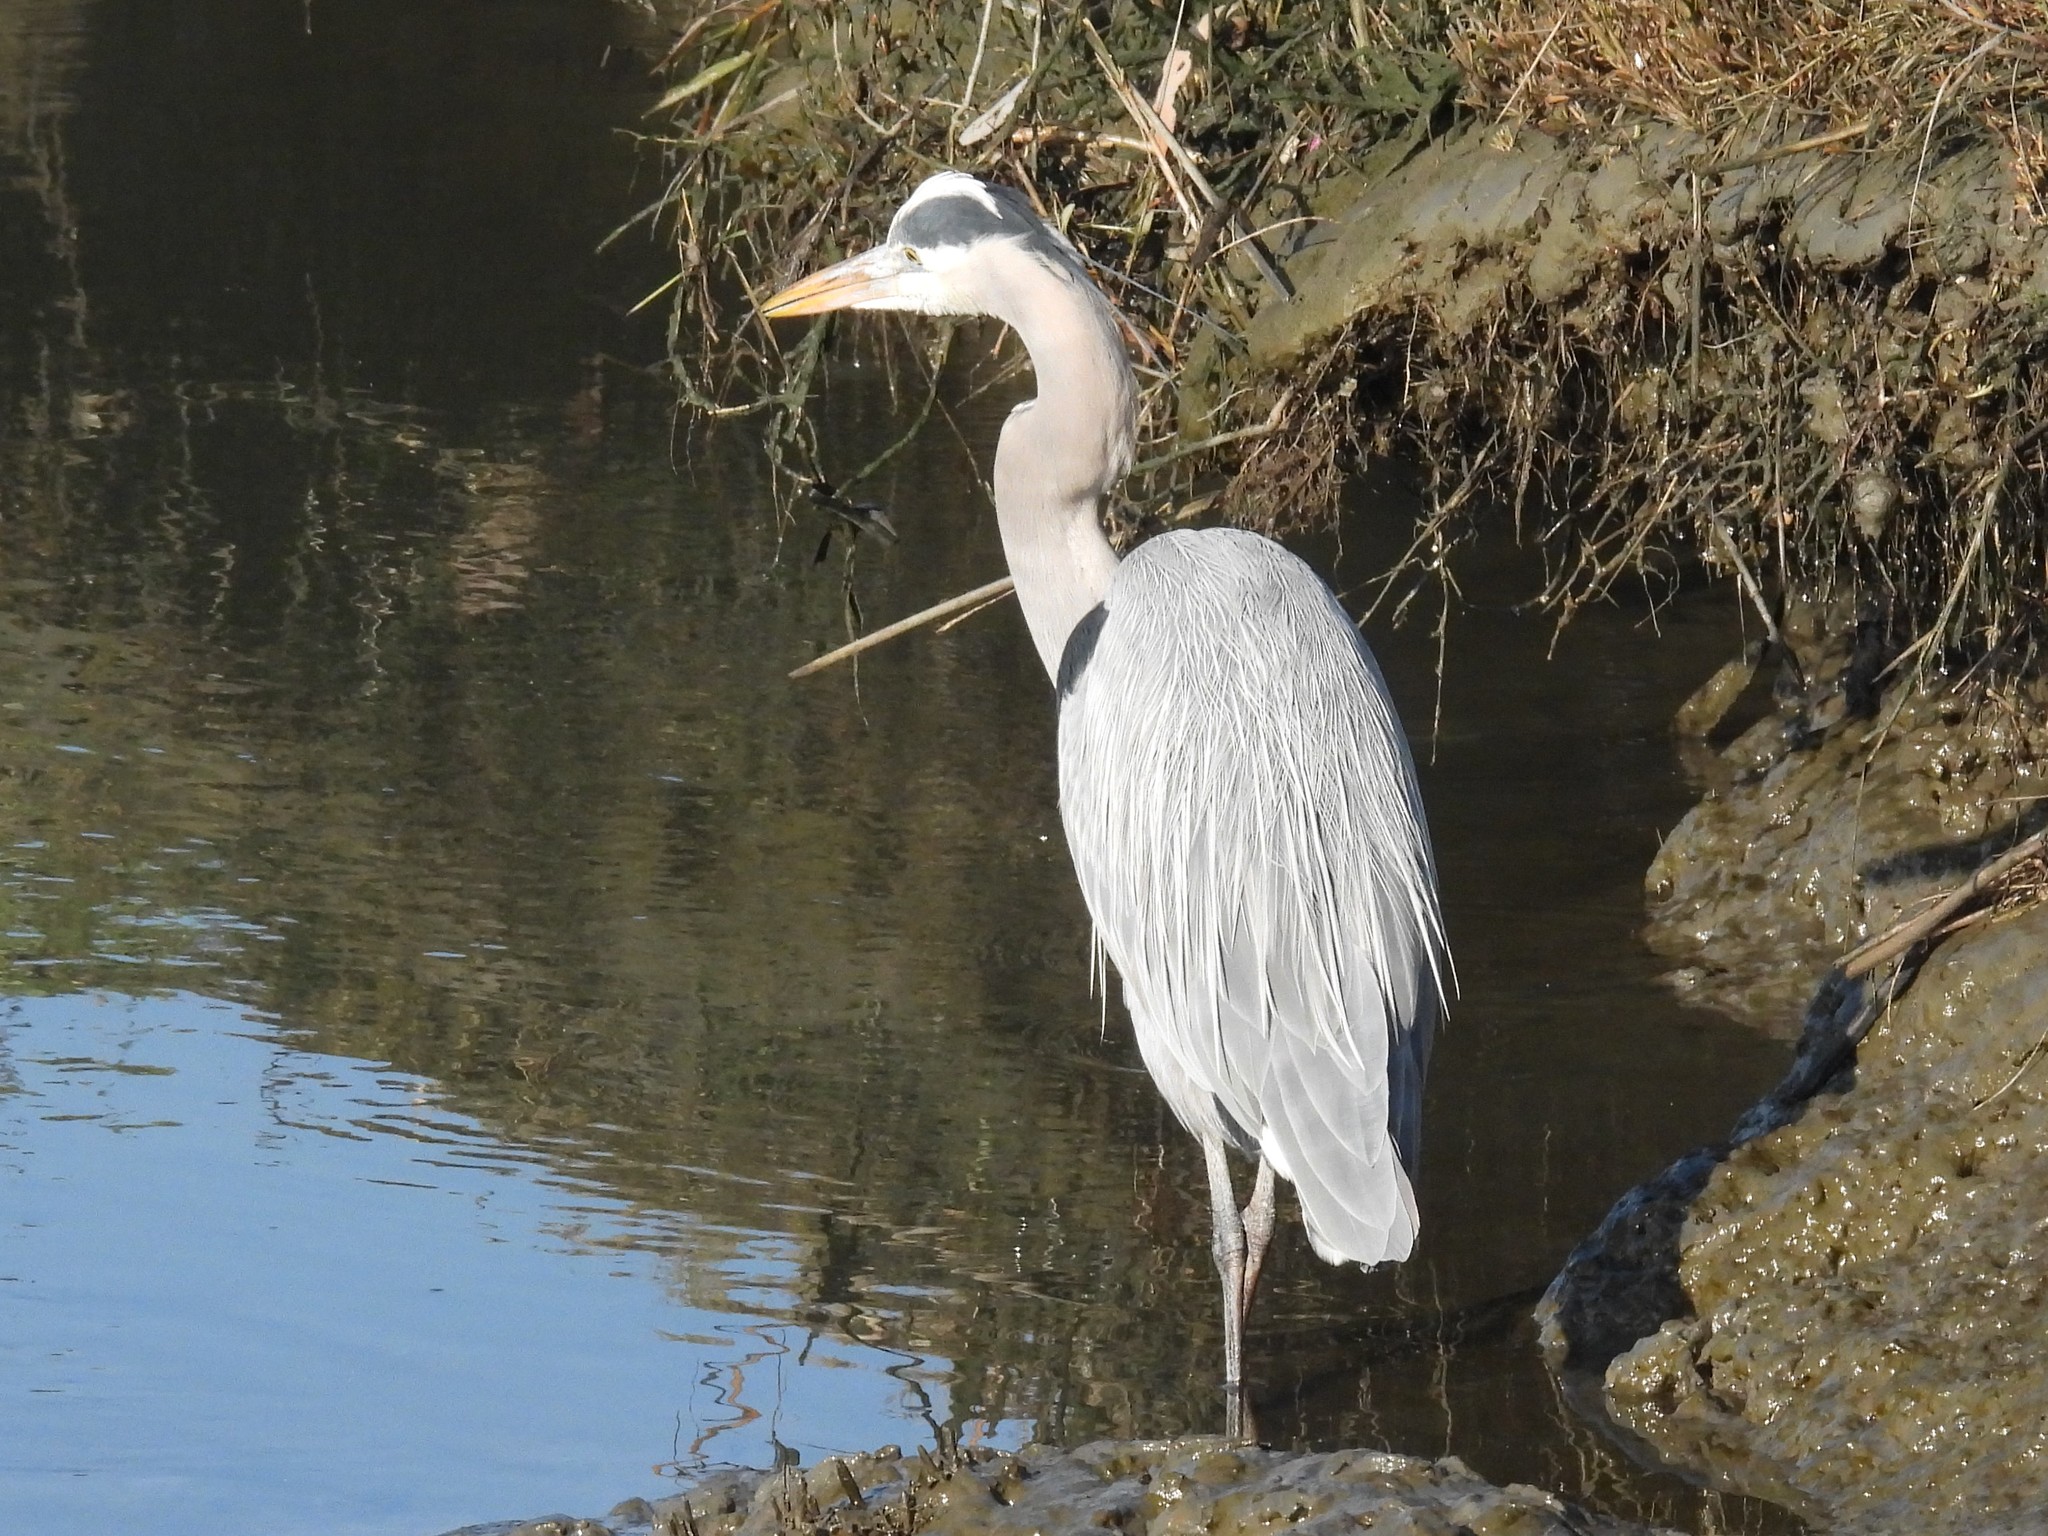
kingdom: Animalia
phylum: Chordata
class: Aves
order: Pelecaniformes
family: Ardeidae
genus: Ardea
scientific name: Ardea herodias
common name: Great blue heron
